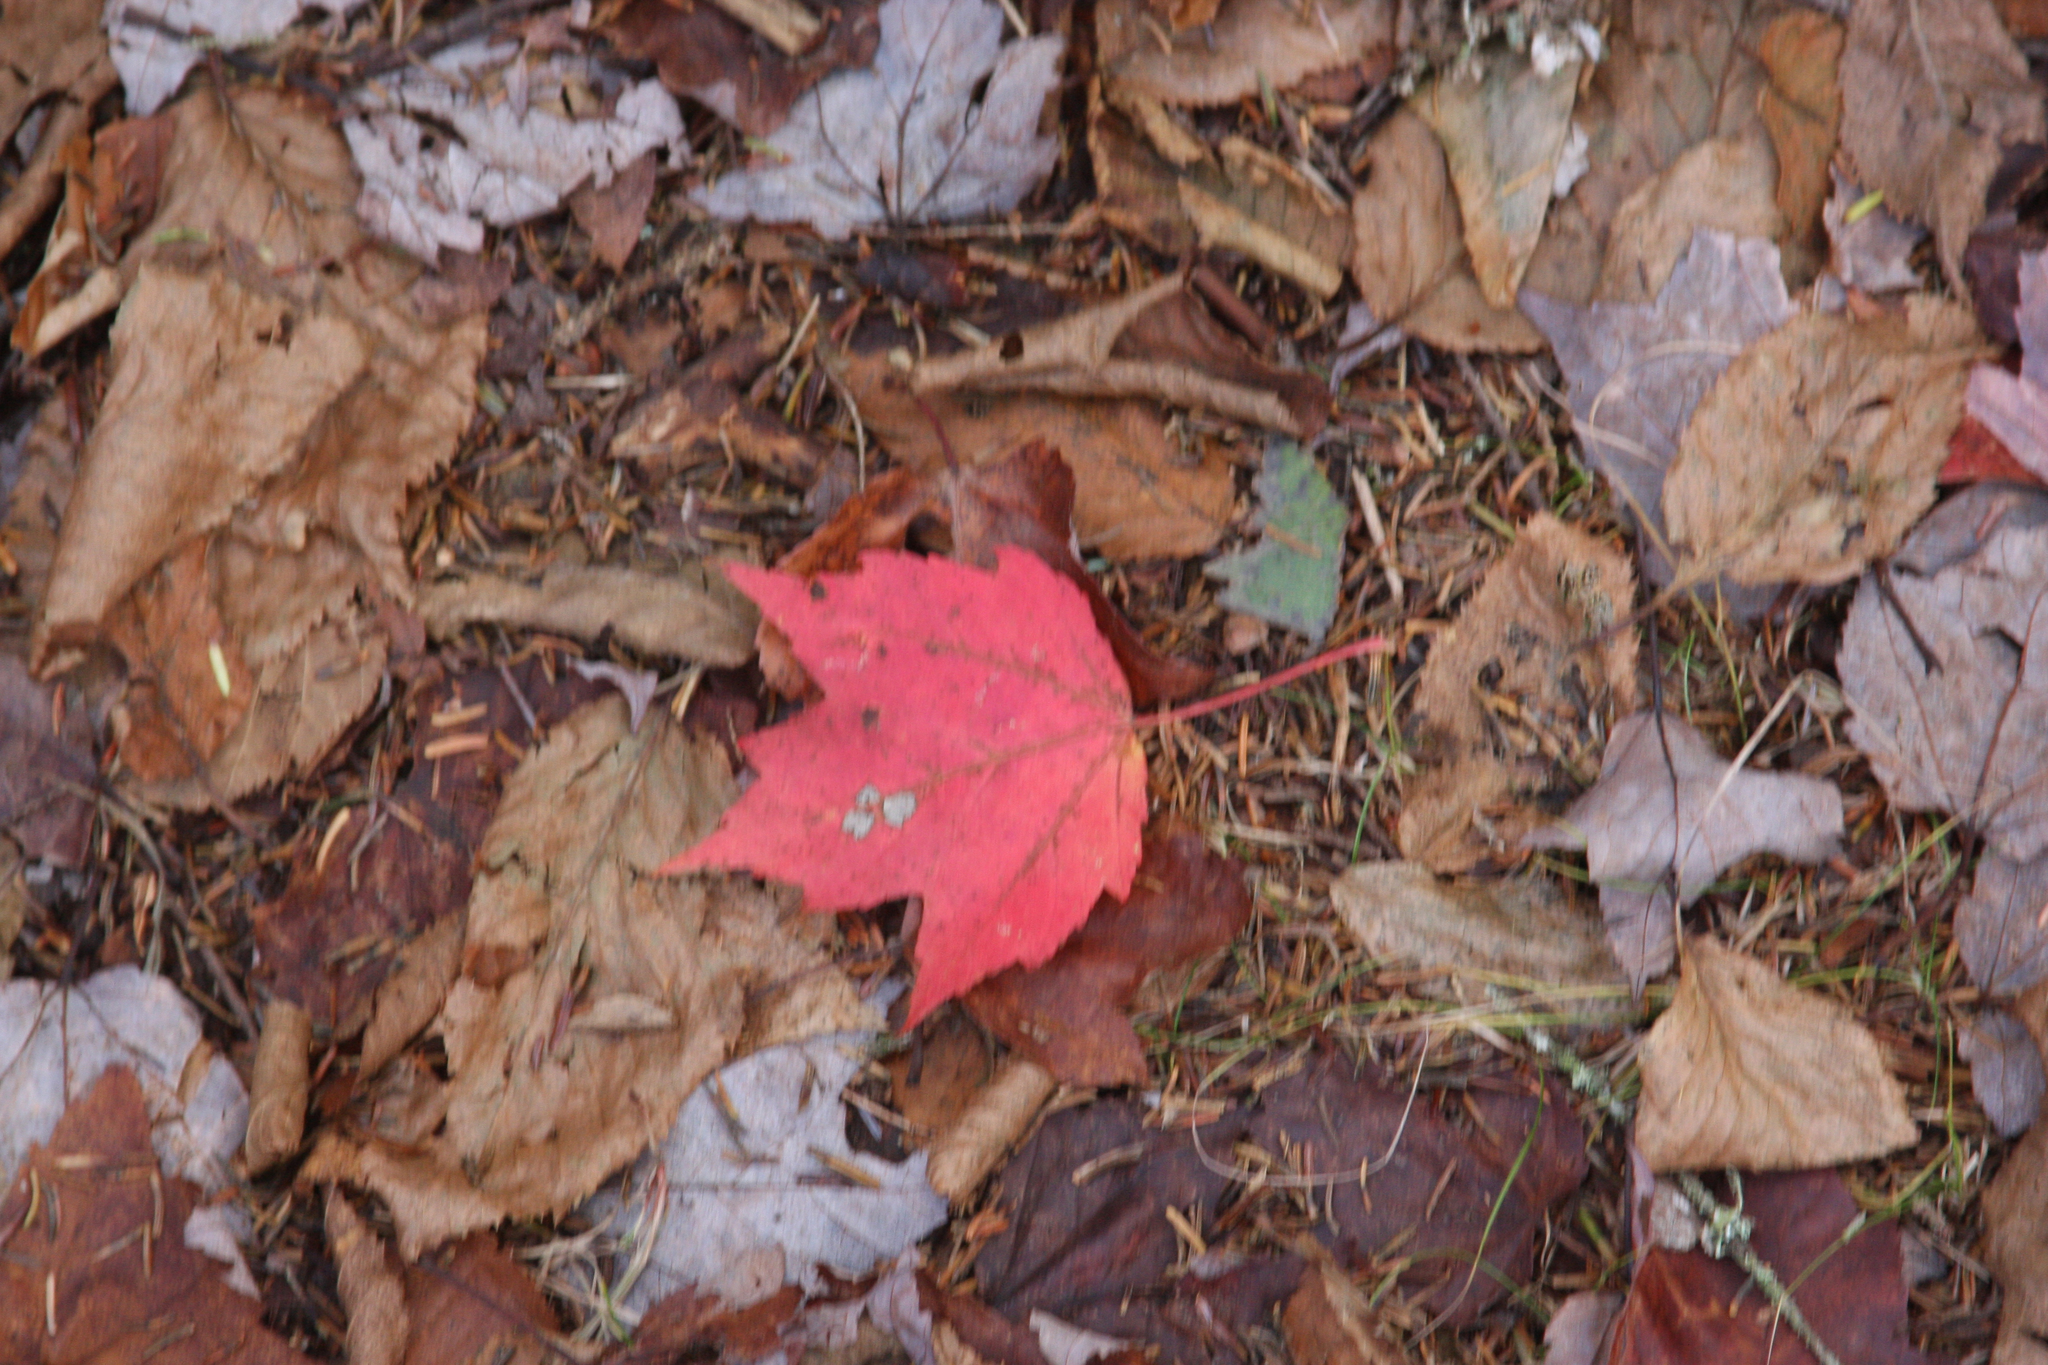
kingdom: Plantae
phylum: Tracheophyta
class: Magnoliopsida
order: Sapindales
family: Sapindaceae
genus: Acer
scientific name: Acer rubrum
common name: Red maple
